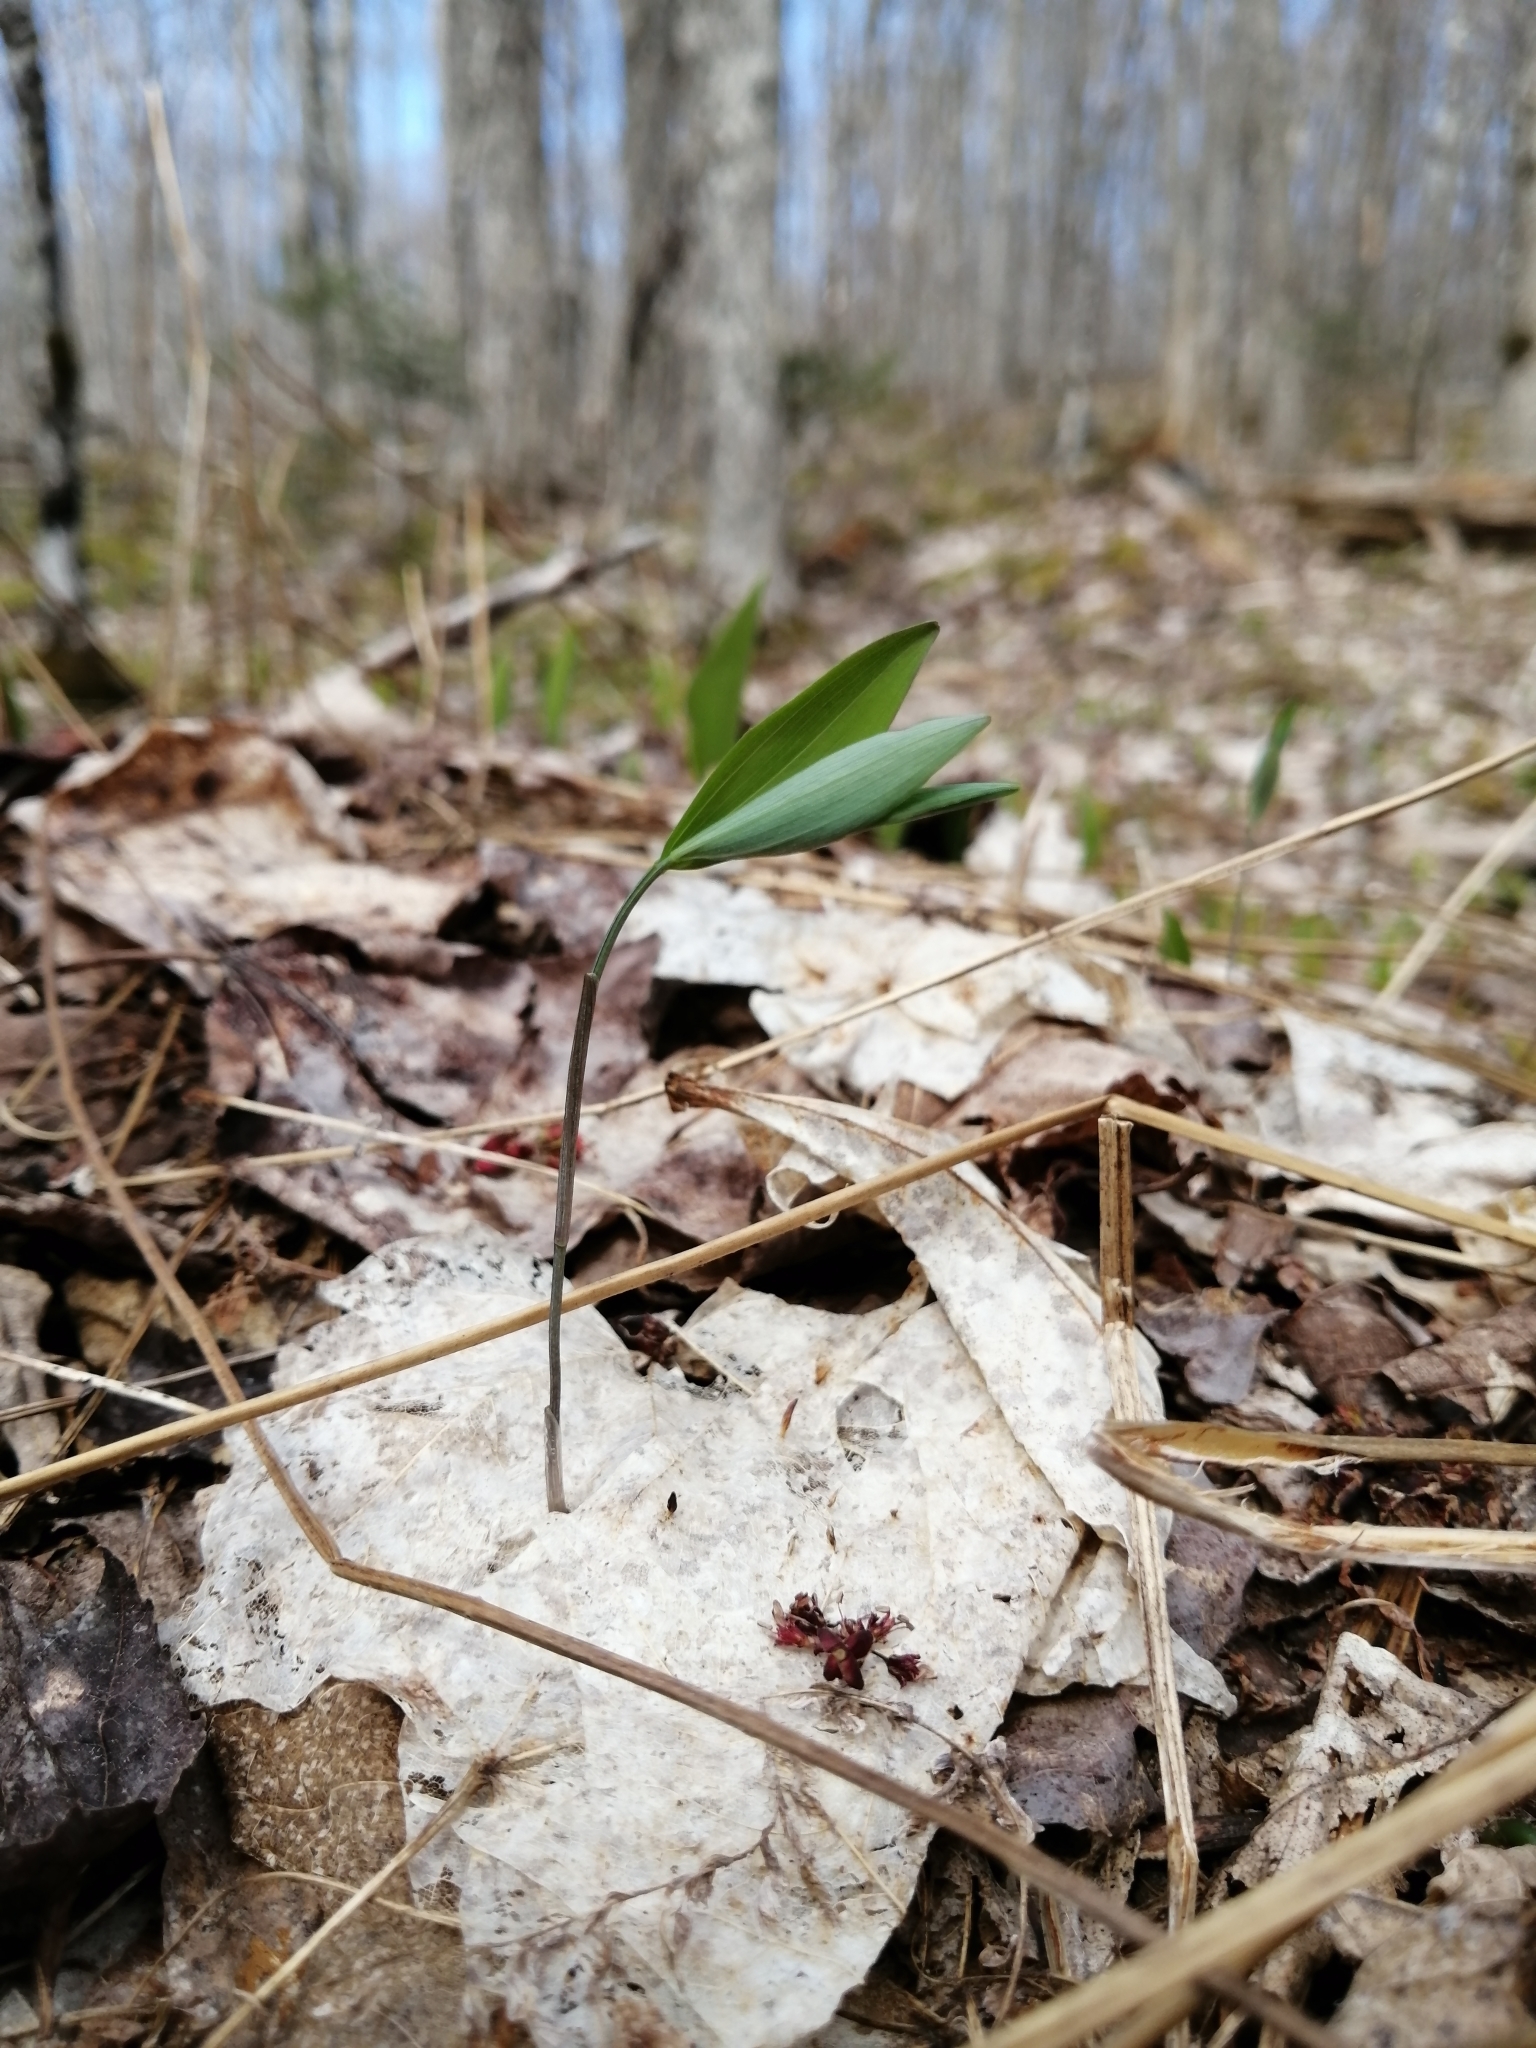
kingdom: Plantae
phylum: Tracheophyta
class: Liliopsida
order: Asparagales
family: Asparagaceae
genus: Polygonatum
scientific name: Polygonatum pubescens
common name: Downy solomon's seal
